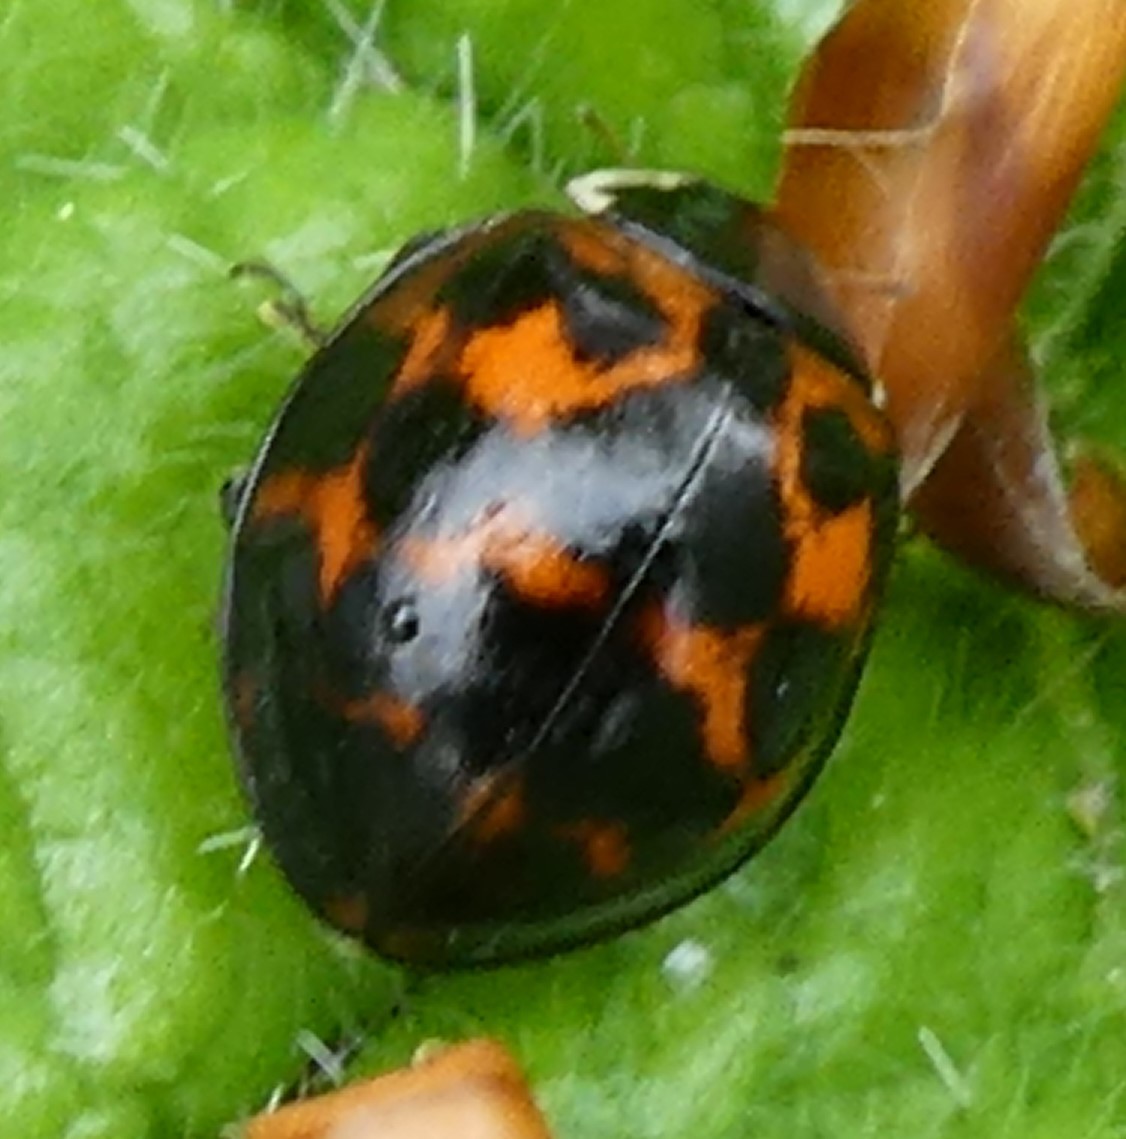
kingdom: Animalia
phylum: Arthropoda
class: Insecta
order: Coleoptera
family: Coccinellidae
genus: Harmonia
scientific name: Harmonia axyridis
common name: Harlequin ladybird
